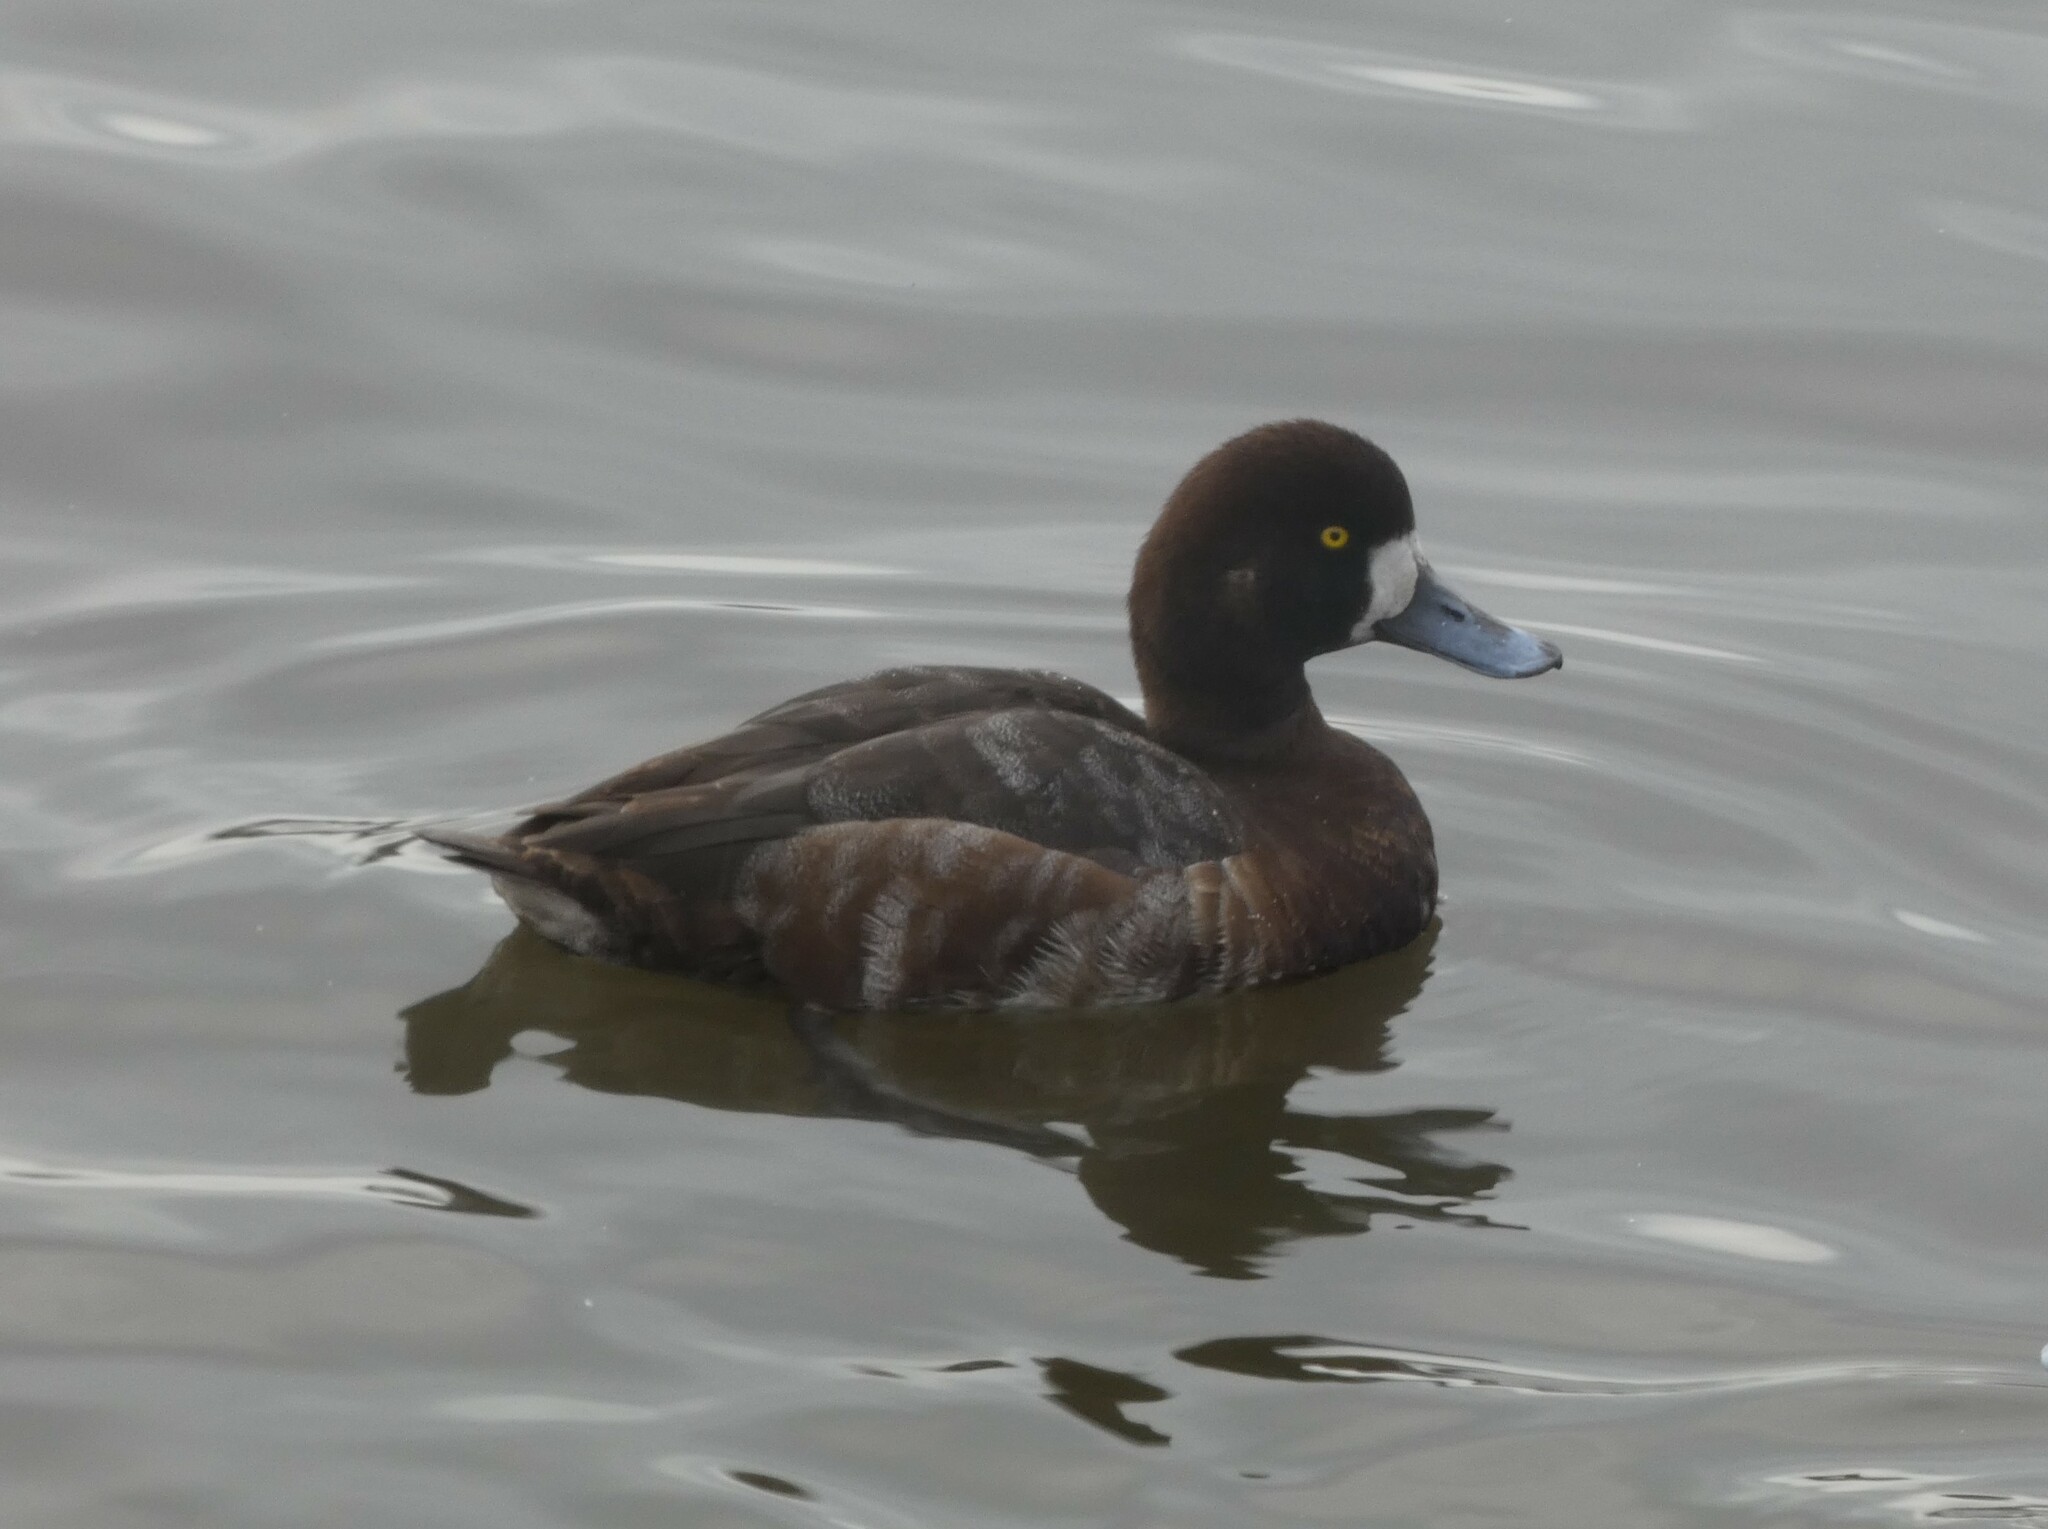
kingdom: Animalia
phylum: Chordata
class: Aves
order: Anseriformes
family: Anatidae
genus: Aythya
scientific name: Aythya marila
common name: Greater scaup
